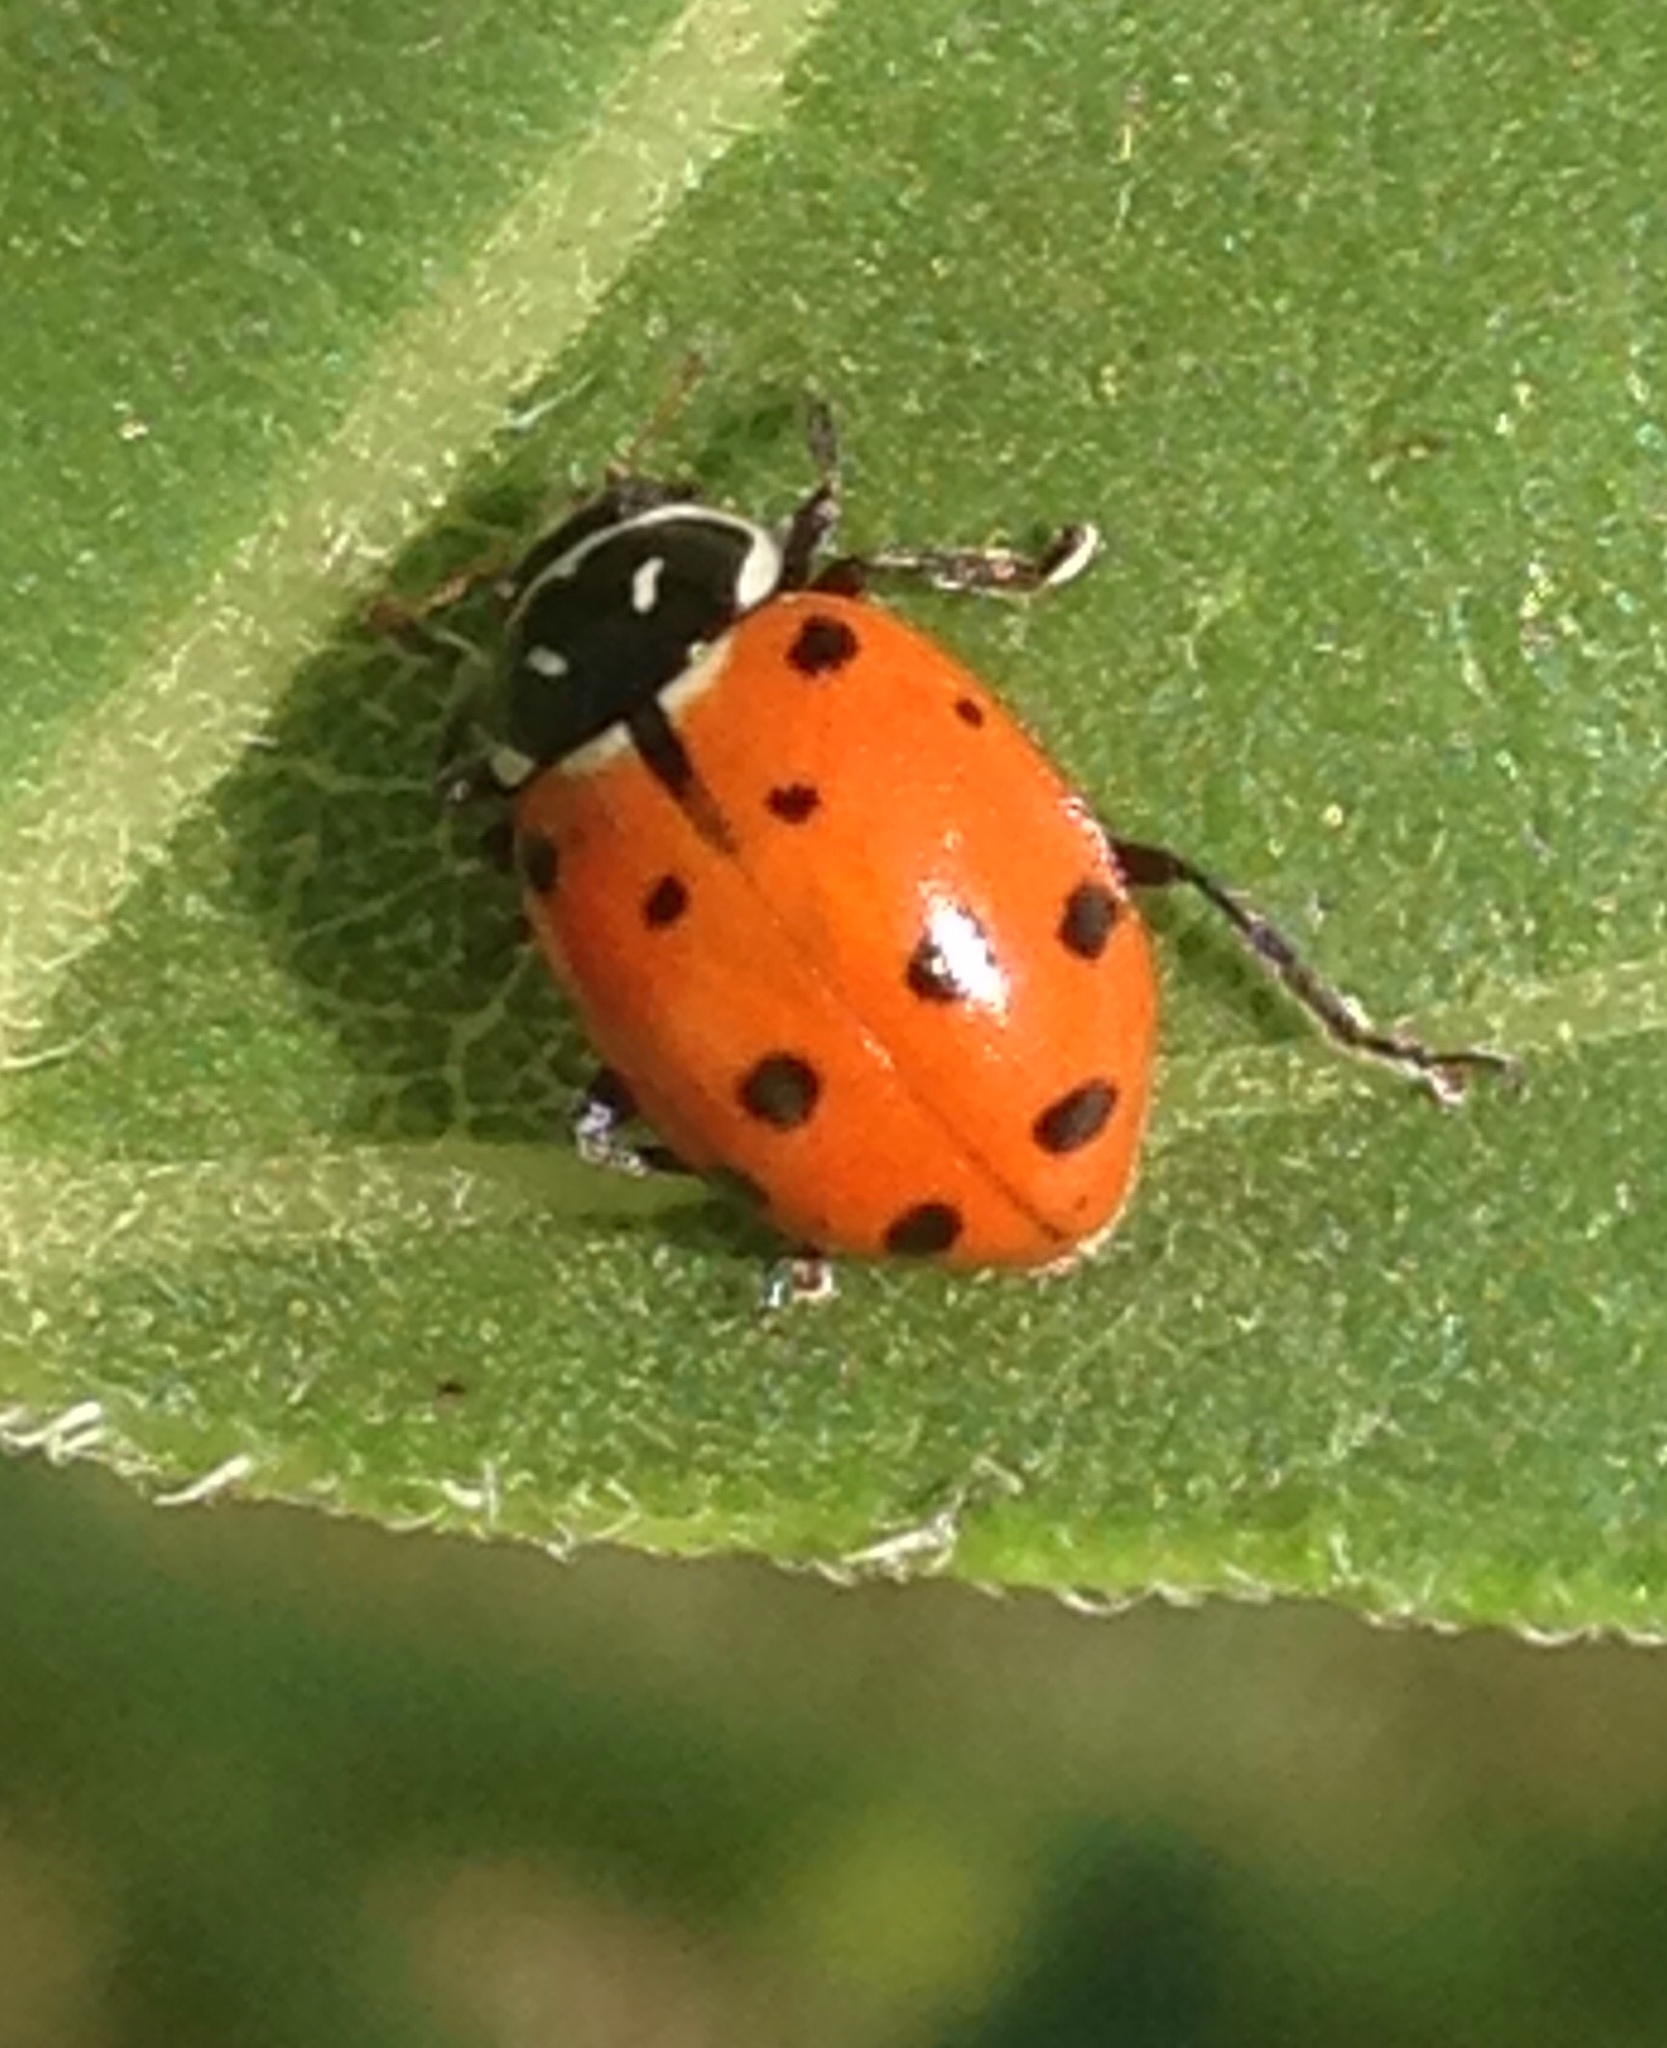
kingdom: Animalia
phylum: Arthropoda
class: Insecta
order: Coleoptera
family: Coccinellidae
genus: Hippodamia
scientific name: Hippodamia convergens
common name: Convergent lady beetle
